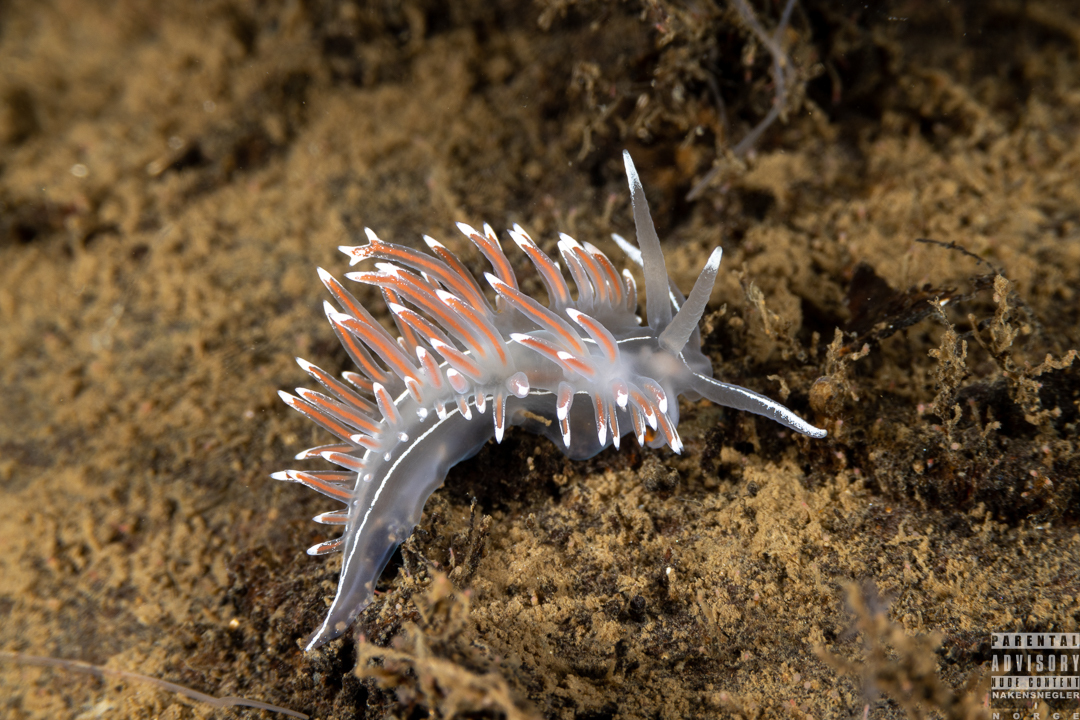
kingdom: Animalia
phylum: Mollusca
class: Gastropoda
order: Nudibranchia
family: Coryphellidae
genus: Coryphella
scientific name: Coryphella lineata
